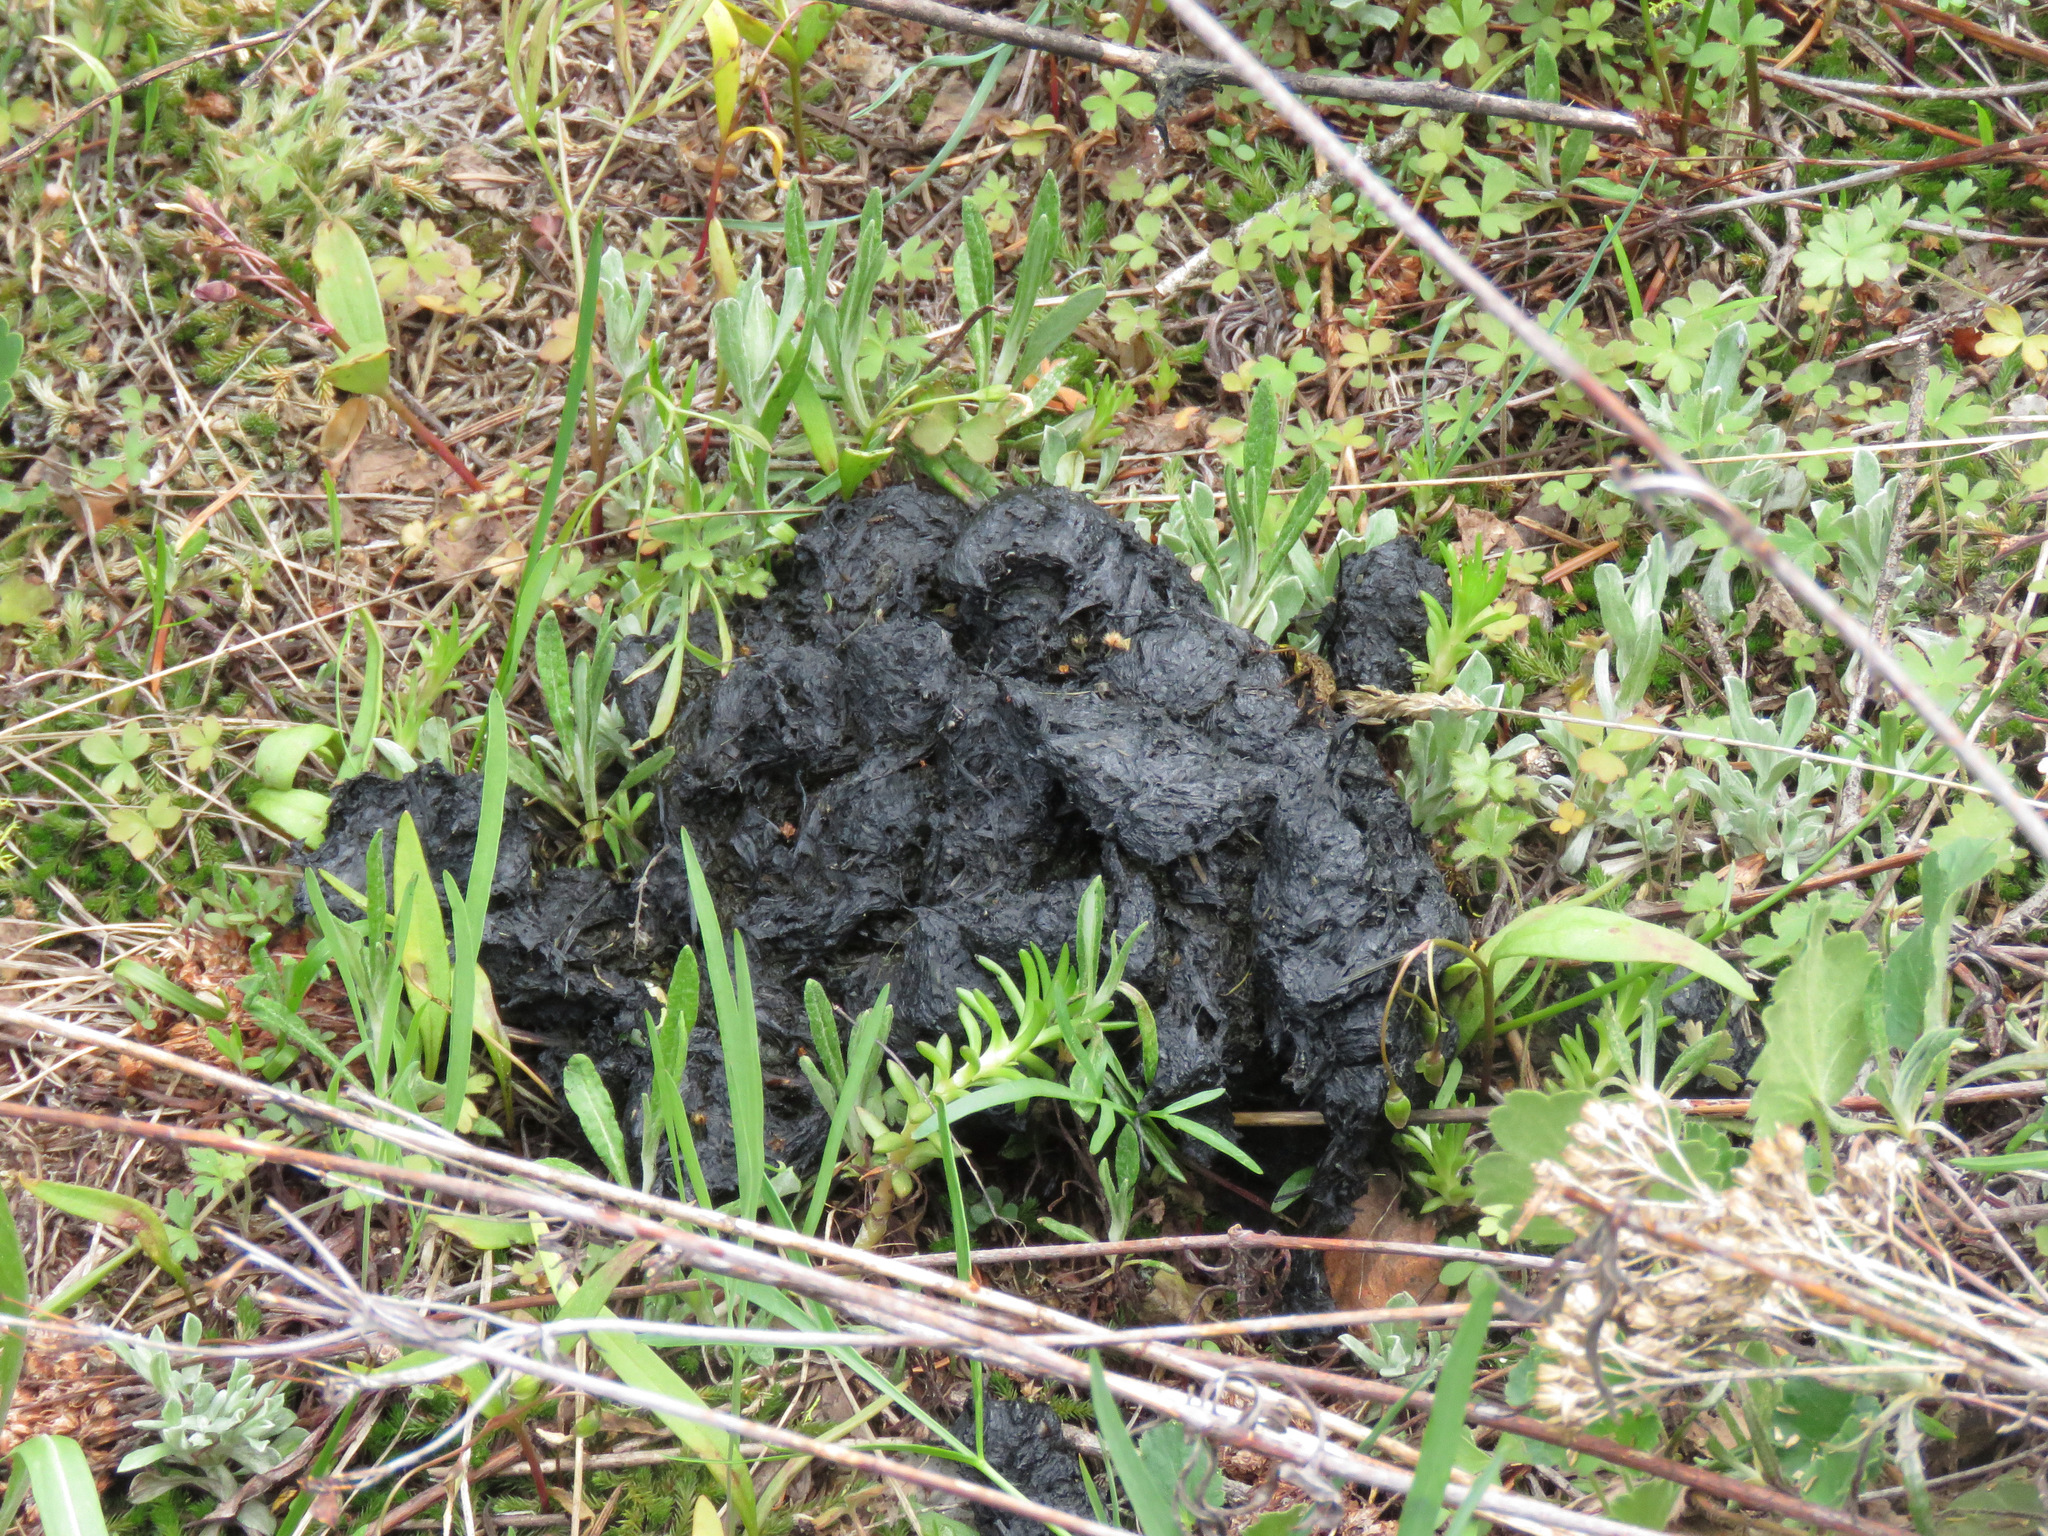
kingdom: Animalia
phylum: Chordata
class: Mammalia
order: Carnivora
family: Ursidae
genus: Ursus
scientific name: Ursus americanus
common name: American black bear
